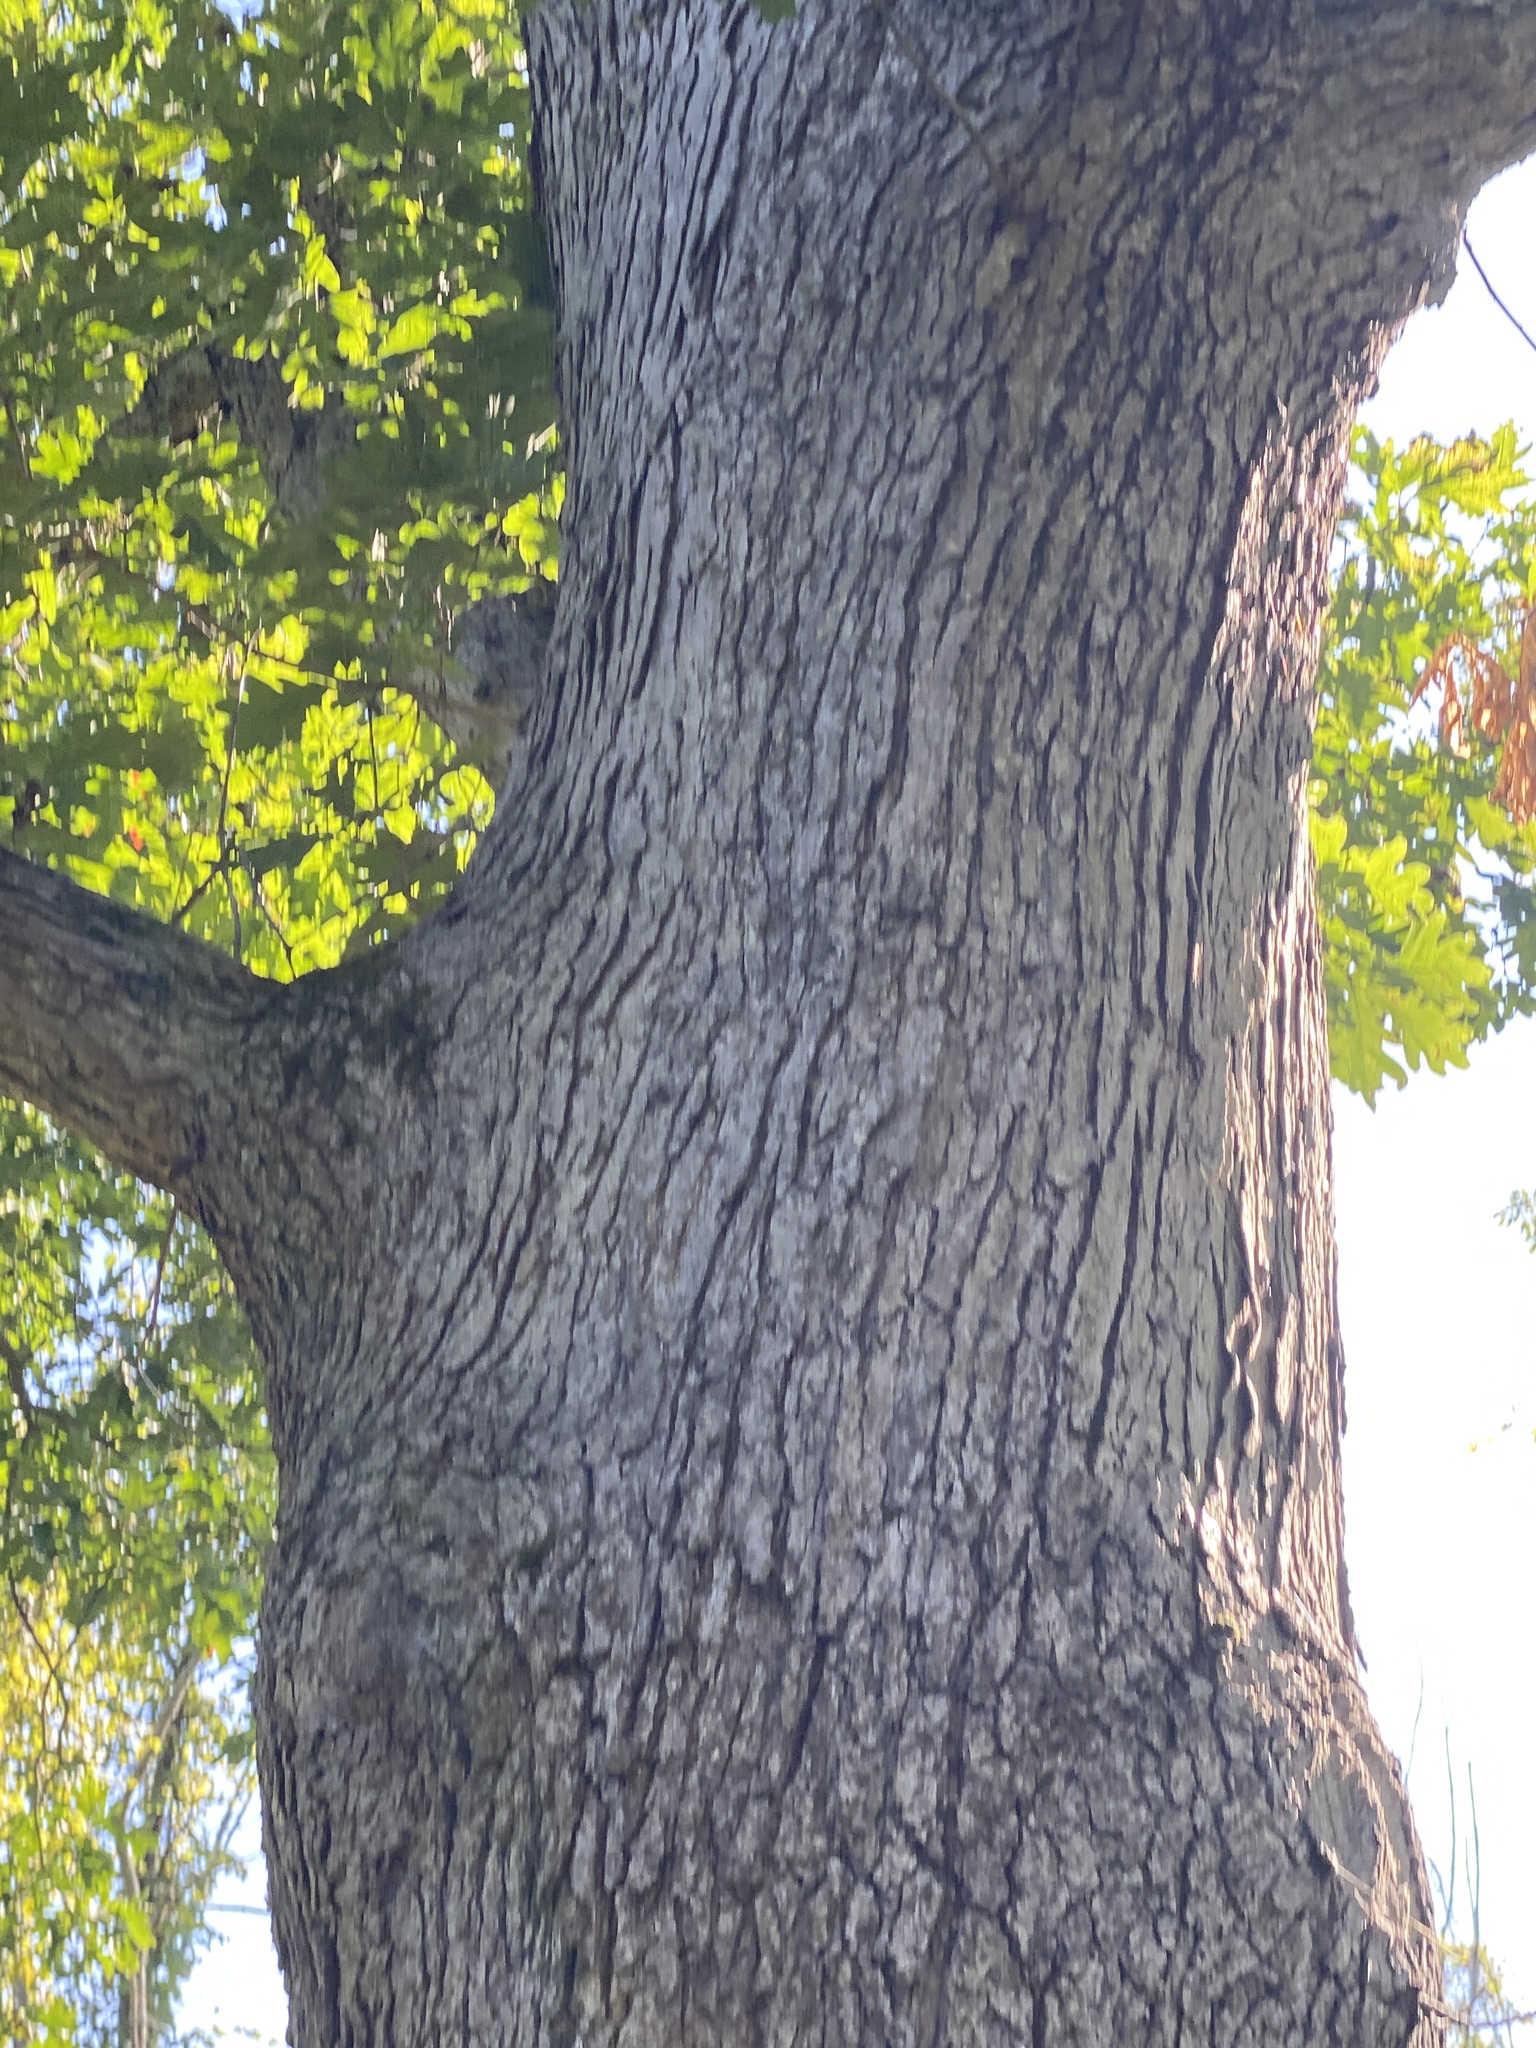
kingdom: Plantae
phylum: Tracheophyta
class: Magnoliopsida
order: Fagales
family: Fagaceae
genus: Quercus
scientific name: Quercus alba
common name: White oak
